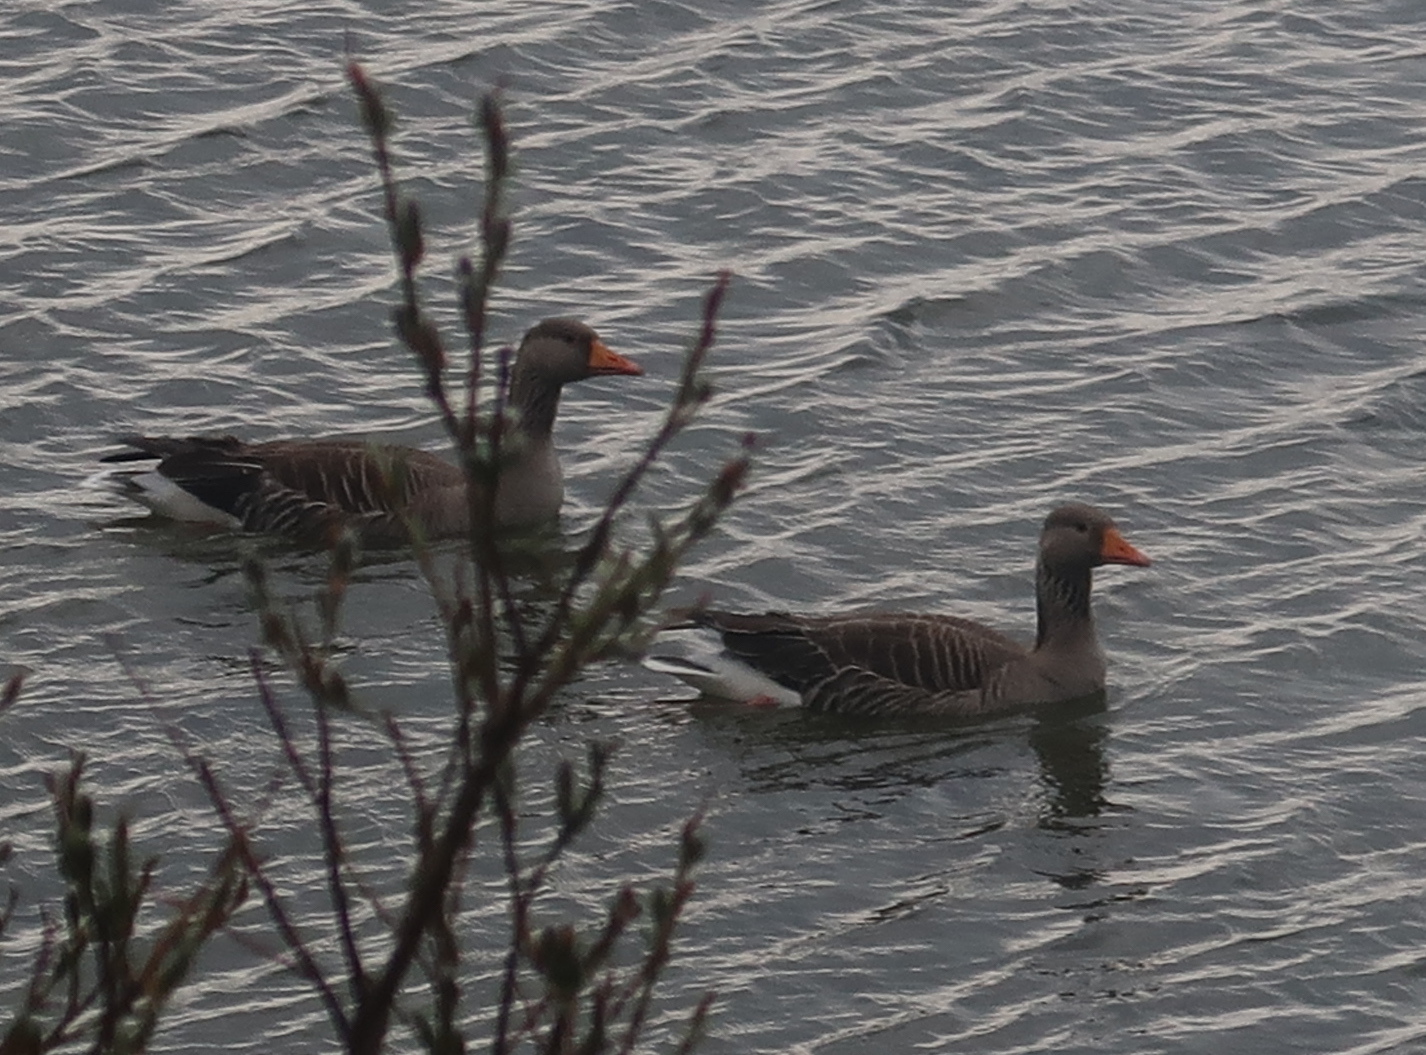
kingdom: Animalia
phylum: Chordata
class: Aves
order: Anseriformes
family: Anatidae
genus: Anser
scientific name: Anser anser
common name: Greylag goose
